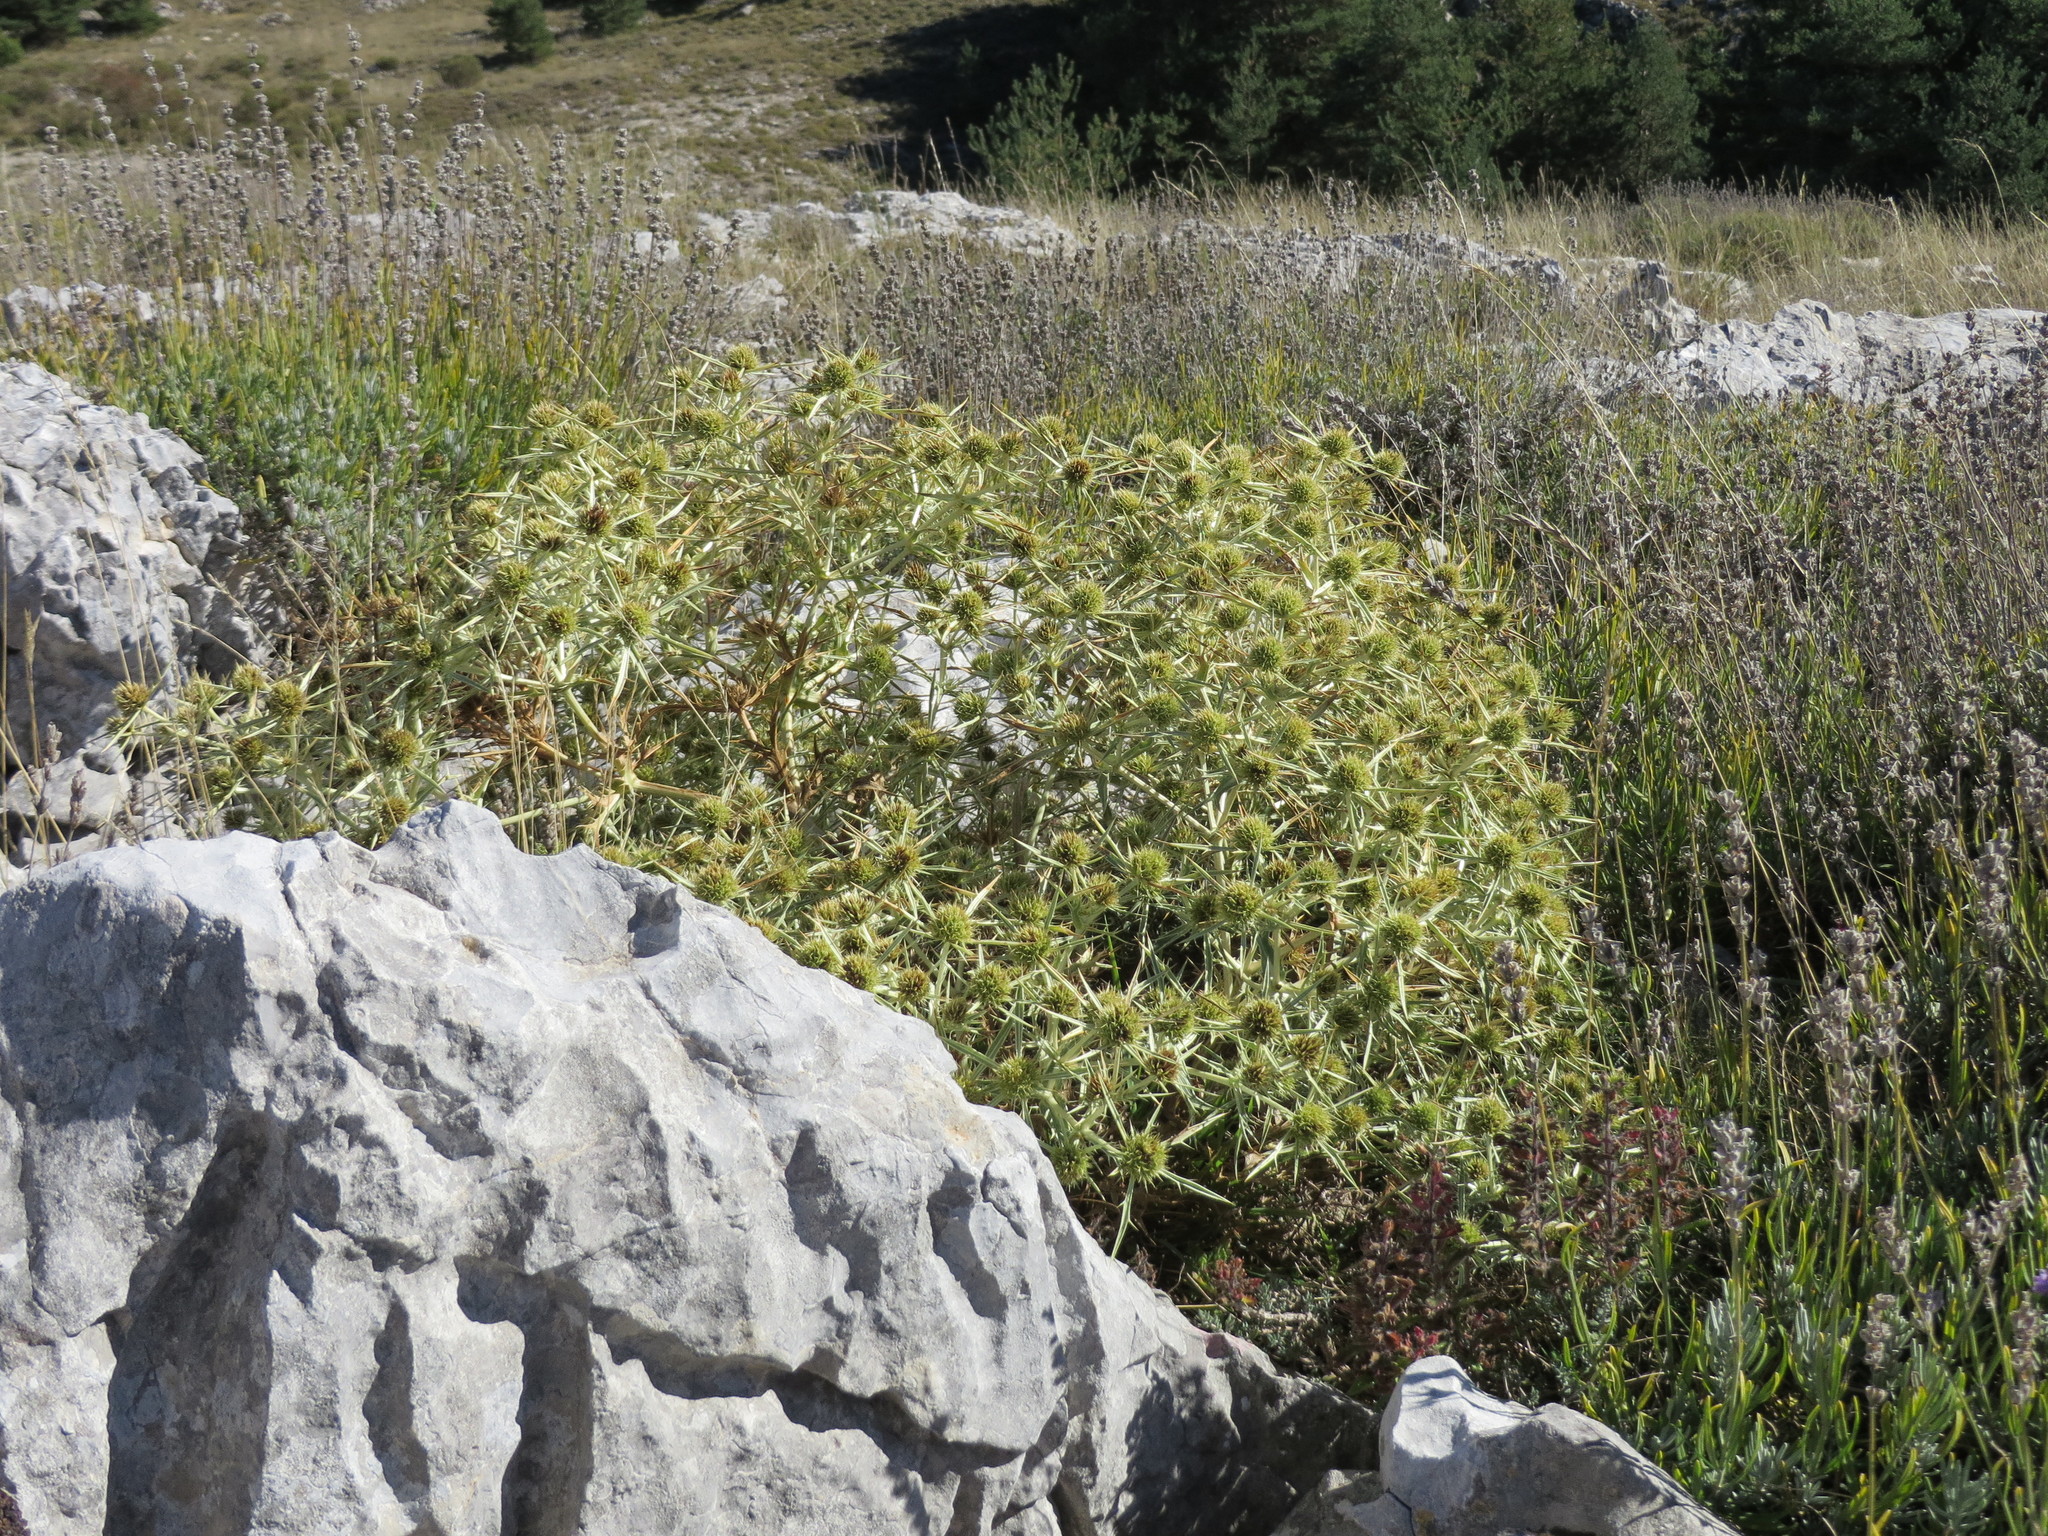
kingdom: Plantae
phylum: Tracheophyta
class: Magnoliopsida
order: Apiales
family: Apiaceae
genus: Eryngium
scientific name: Eryngium campestre
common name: Field eryngo
